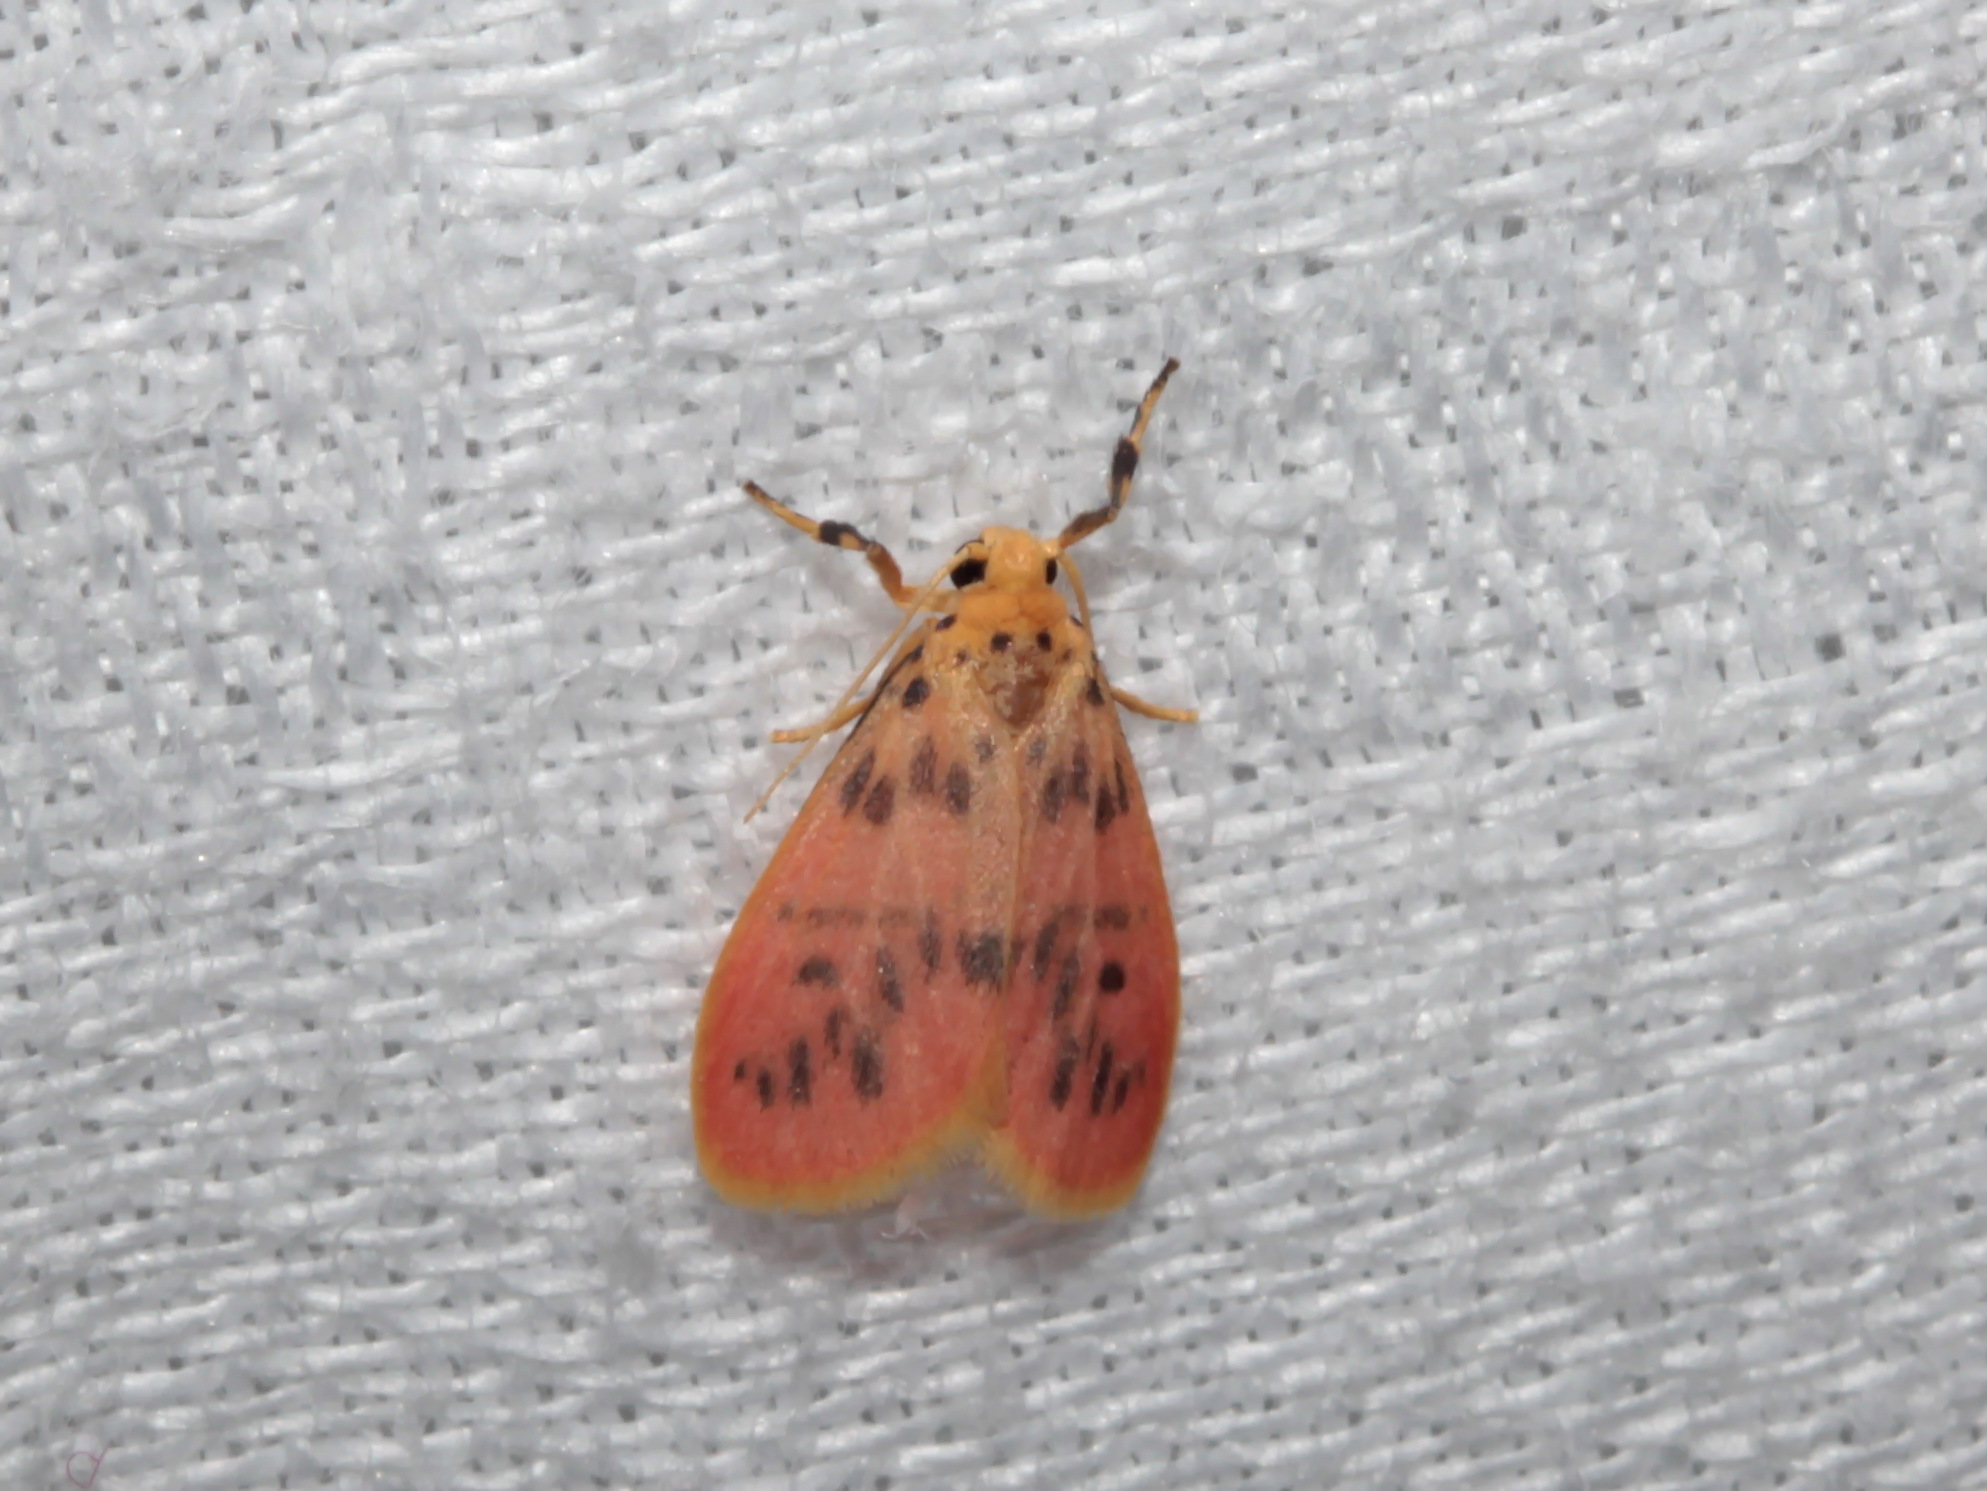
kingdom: Animalia
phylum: Arthropoda
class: Insecta
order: Lepidoptera
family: Erebidae
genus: Miltochrista
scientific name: Miltochrista acteola
